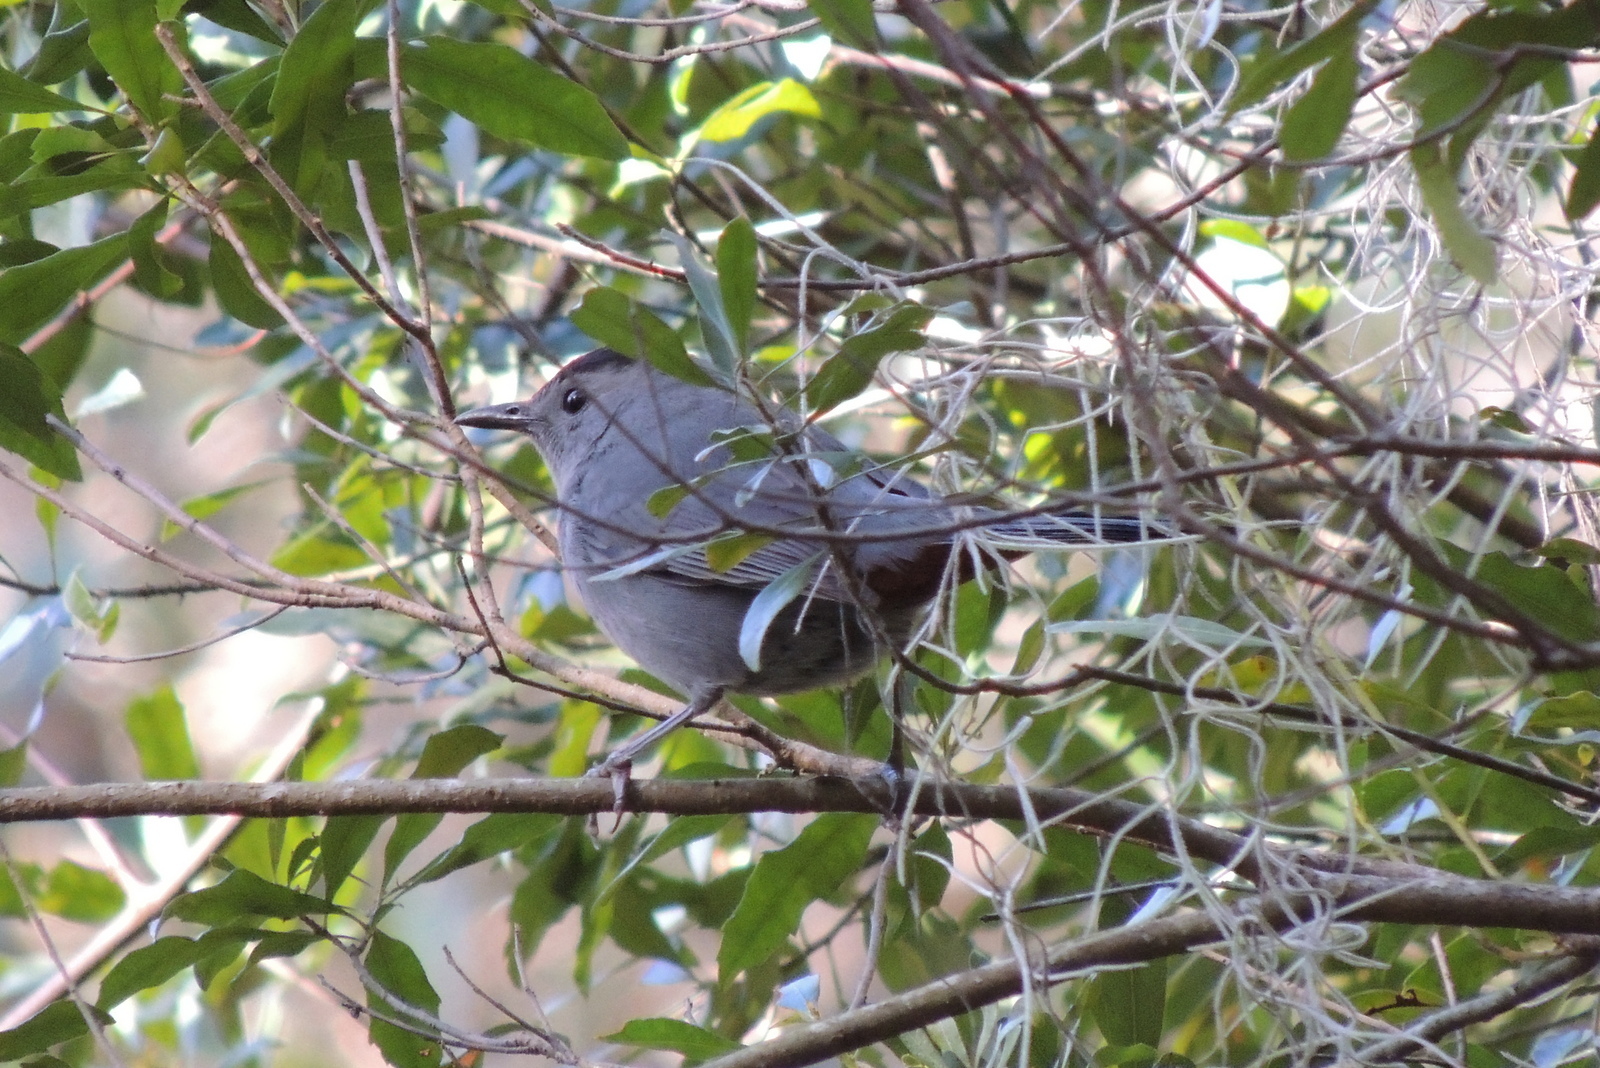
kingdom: Animalia
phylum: Chordata
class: Aves
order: Passeriformes
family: Mimidae
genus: Dumetella
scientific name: Dumetella carolinensis
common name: Gray catbird
